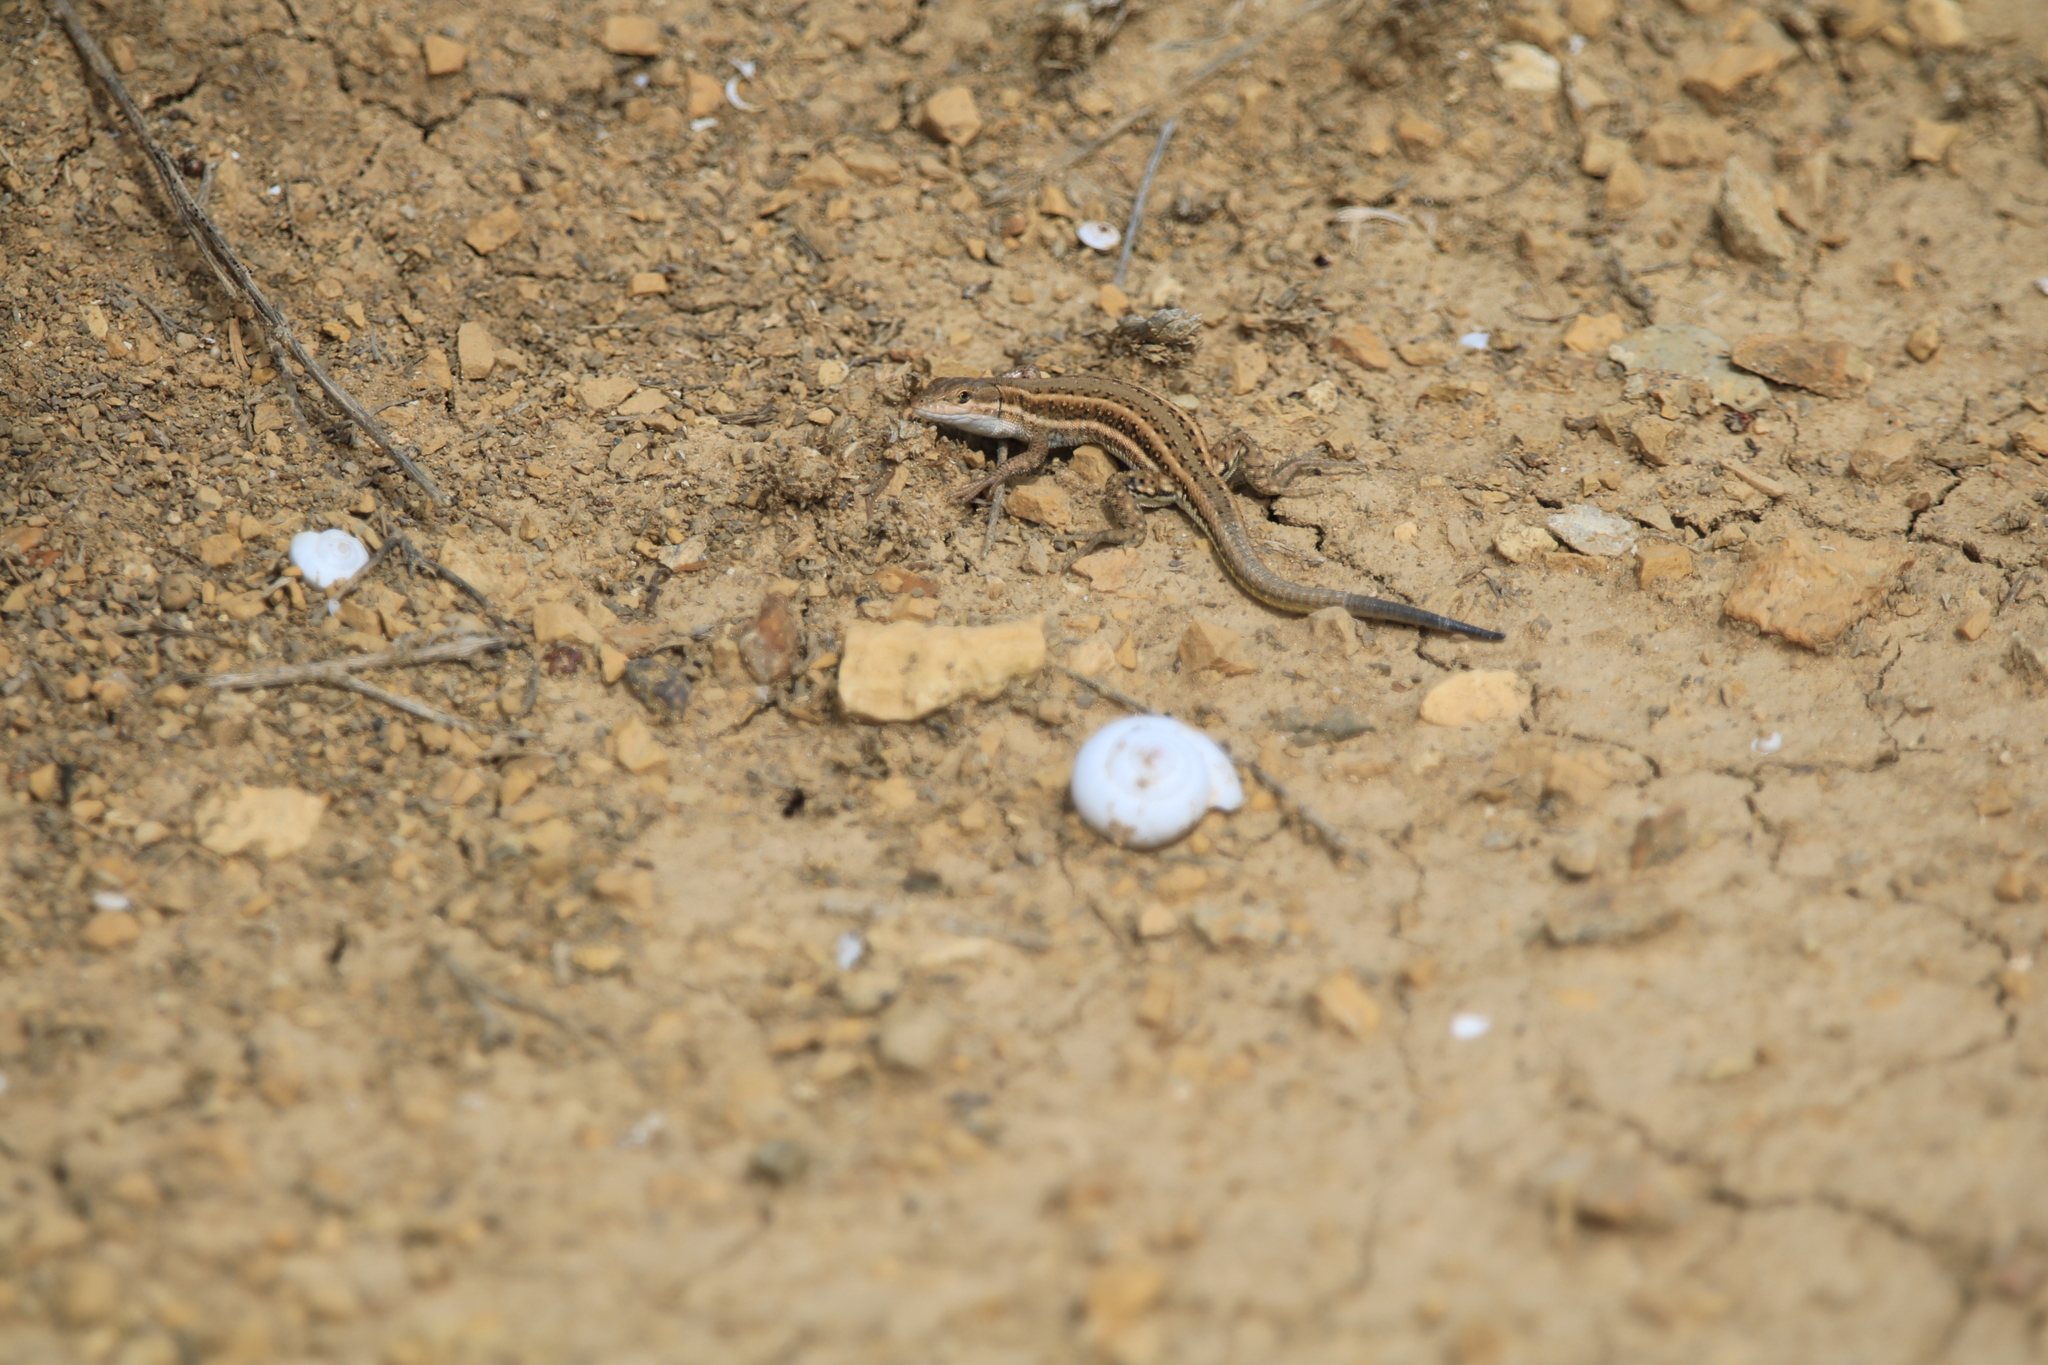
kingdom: Animalia
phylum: Chordata
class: Squamata
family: Lacertidae
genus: Mesalina
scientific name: Mesalina olivieri
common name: Oliver's desert racer
